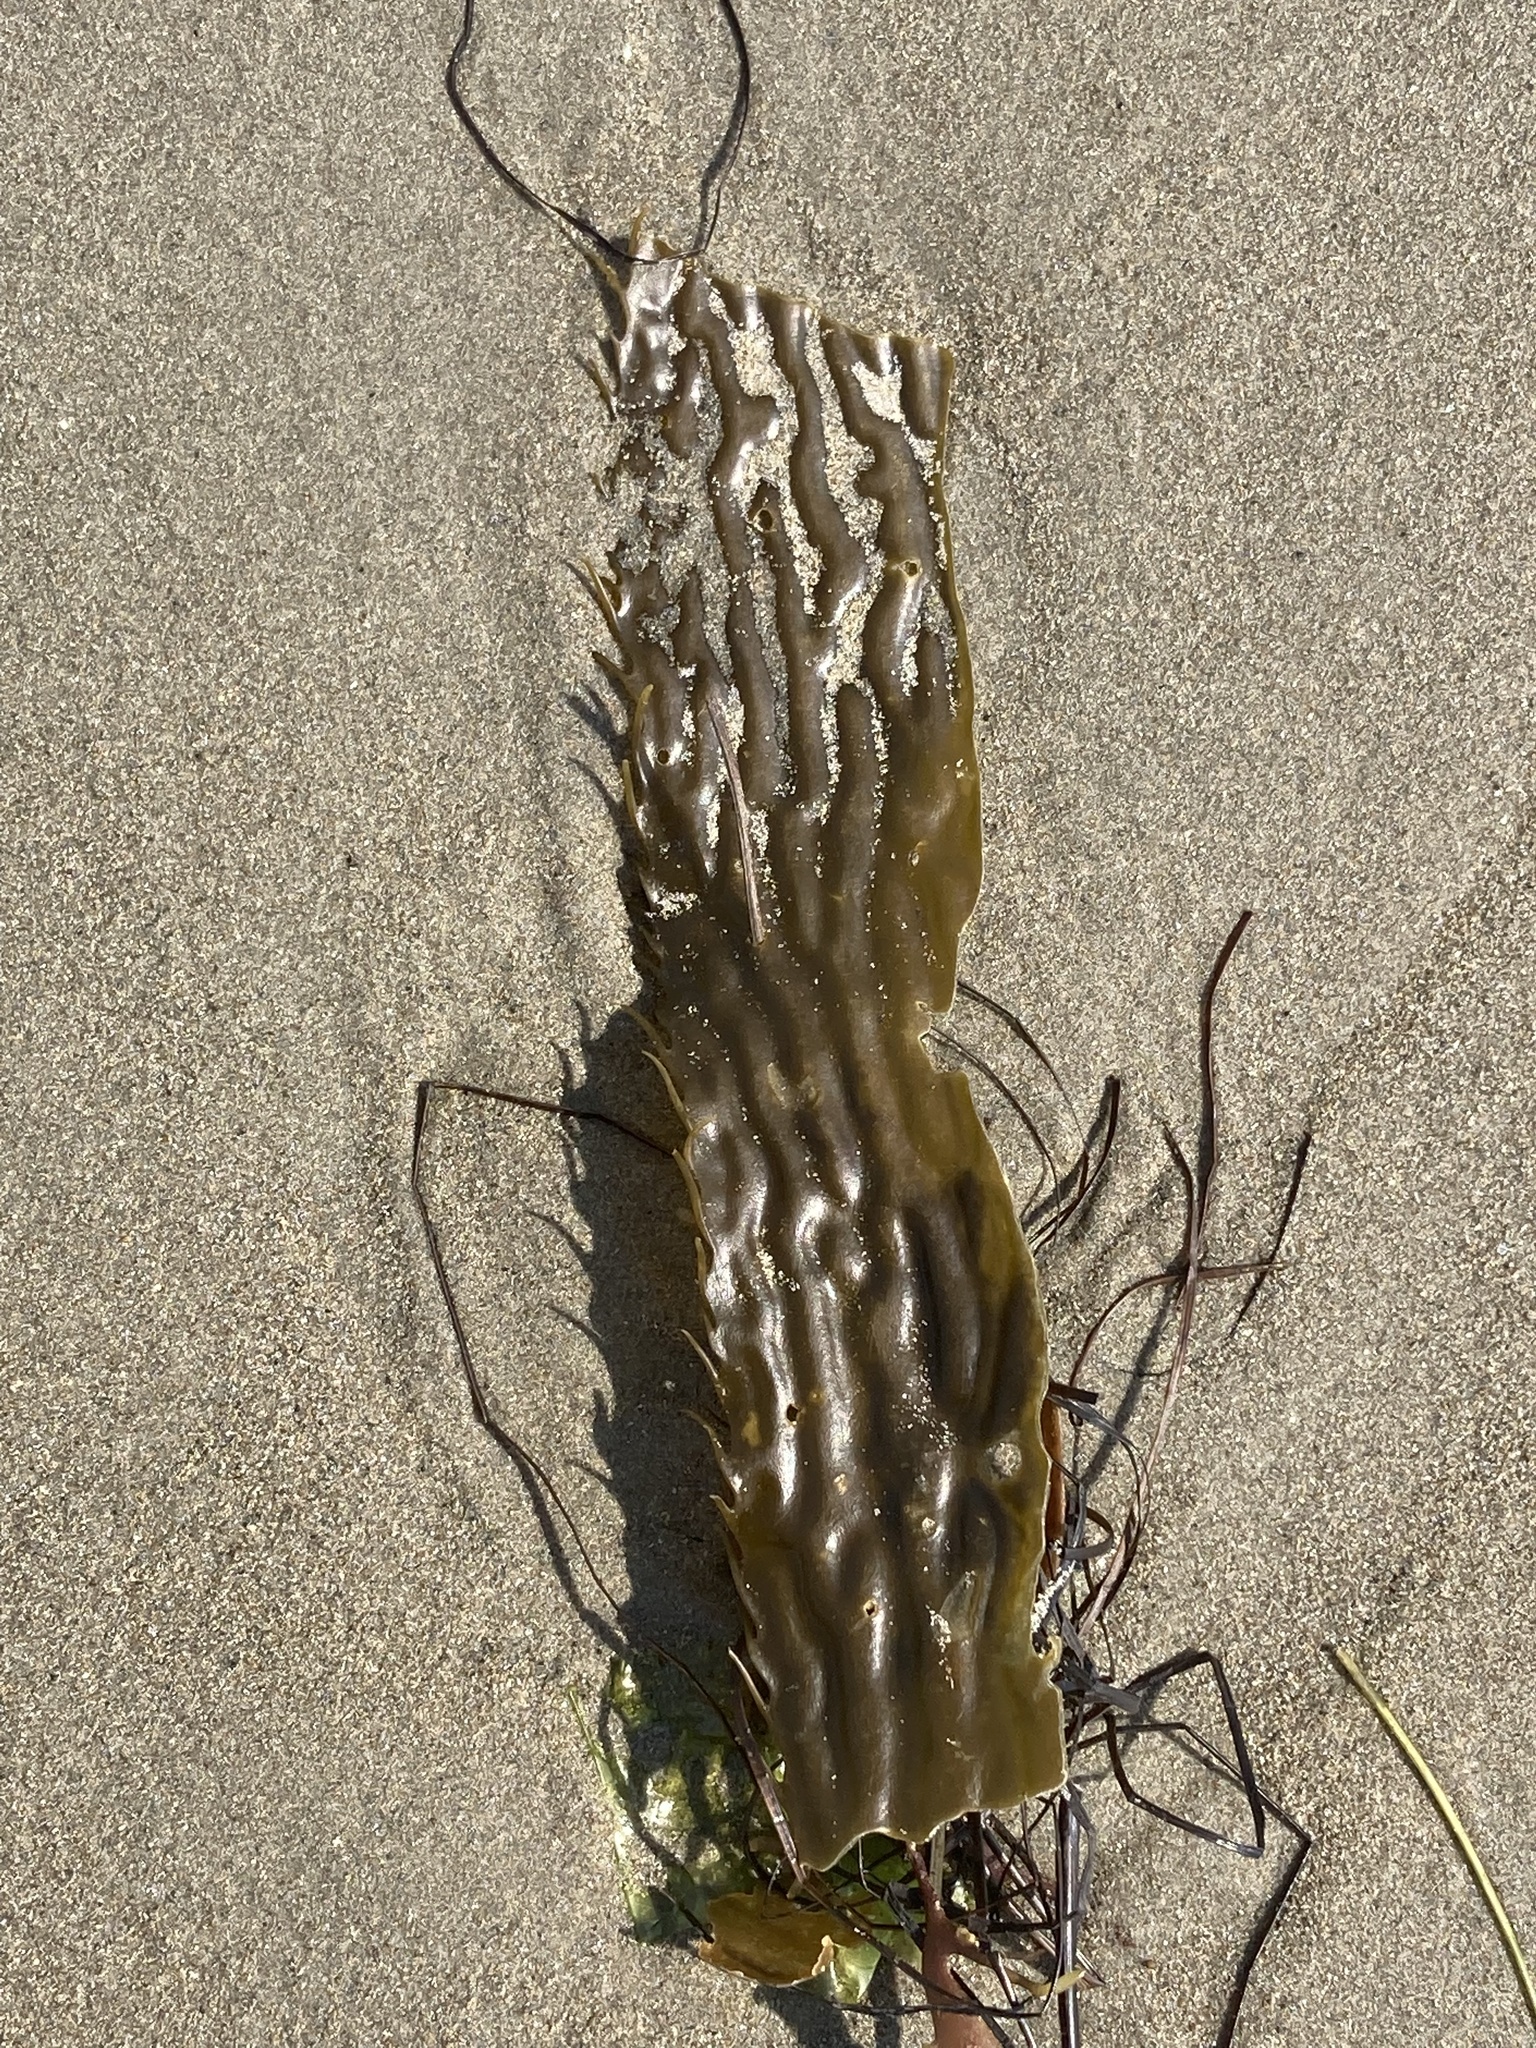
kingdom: Chromista
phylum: Ochrophyta
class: Phaeophyceae
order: Laminariales
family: Laminariaceae
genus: Macrocystis
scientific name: Macrocystis pyrifera
